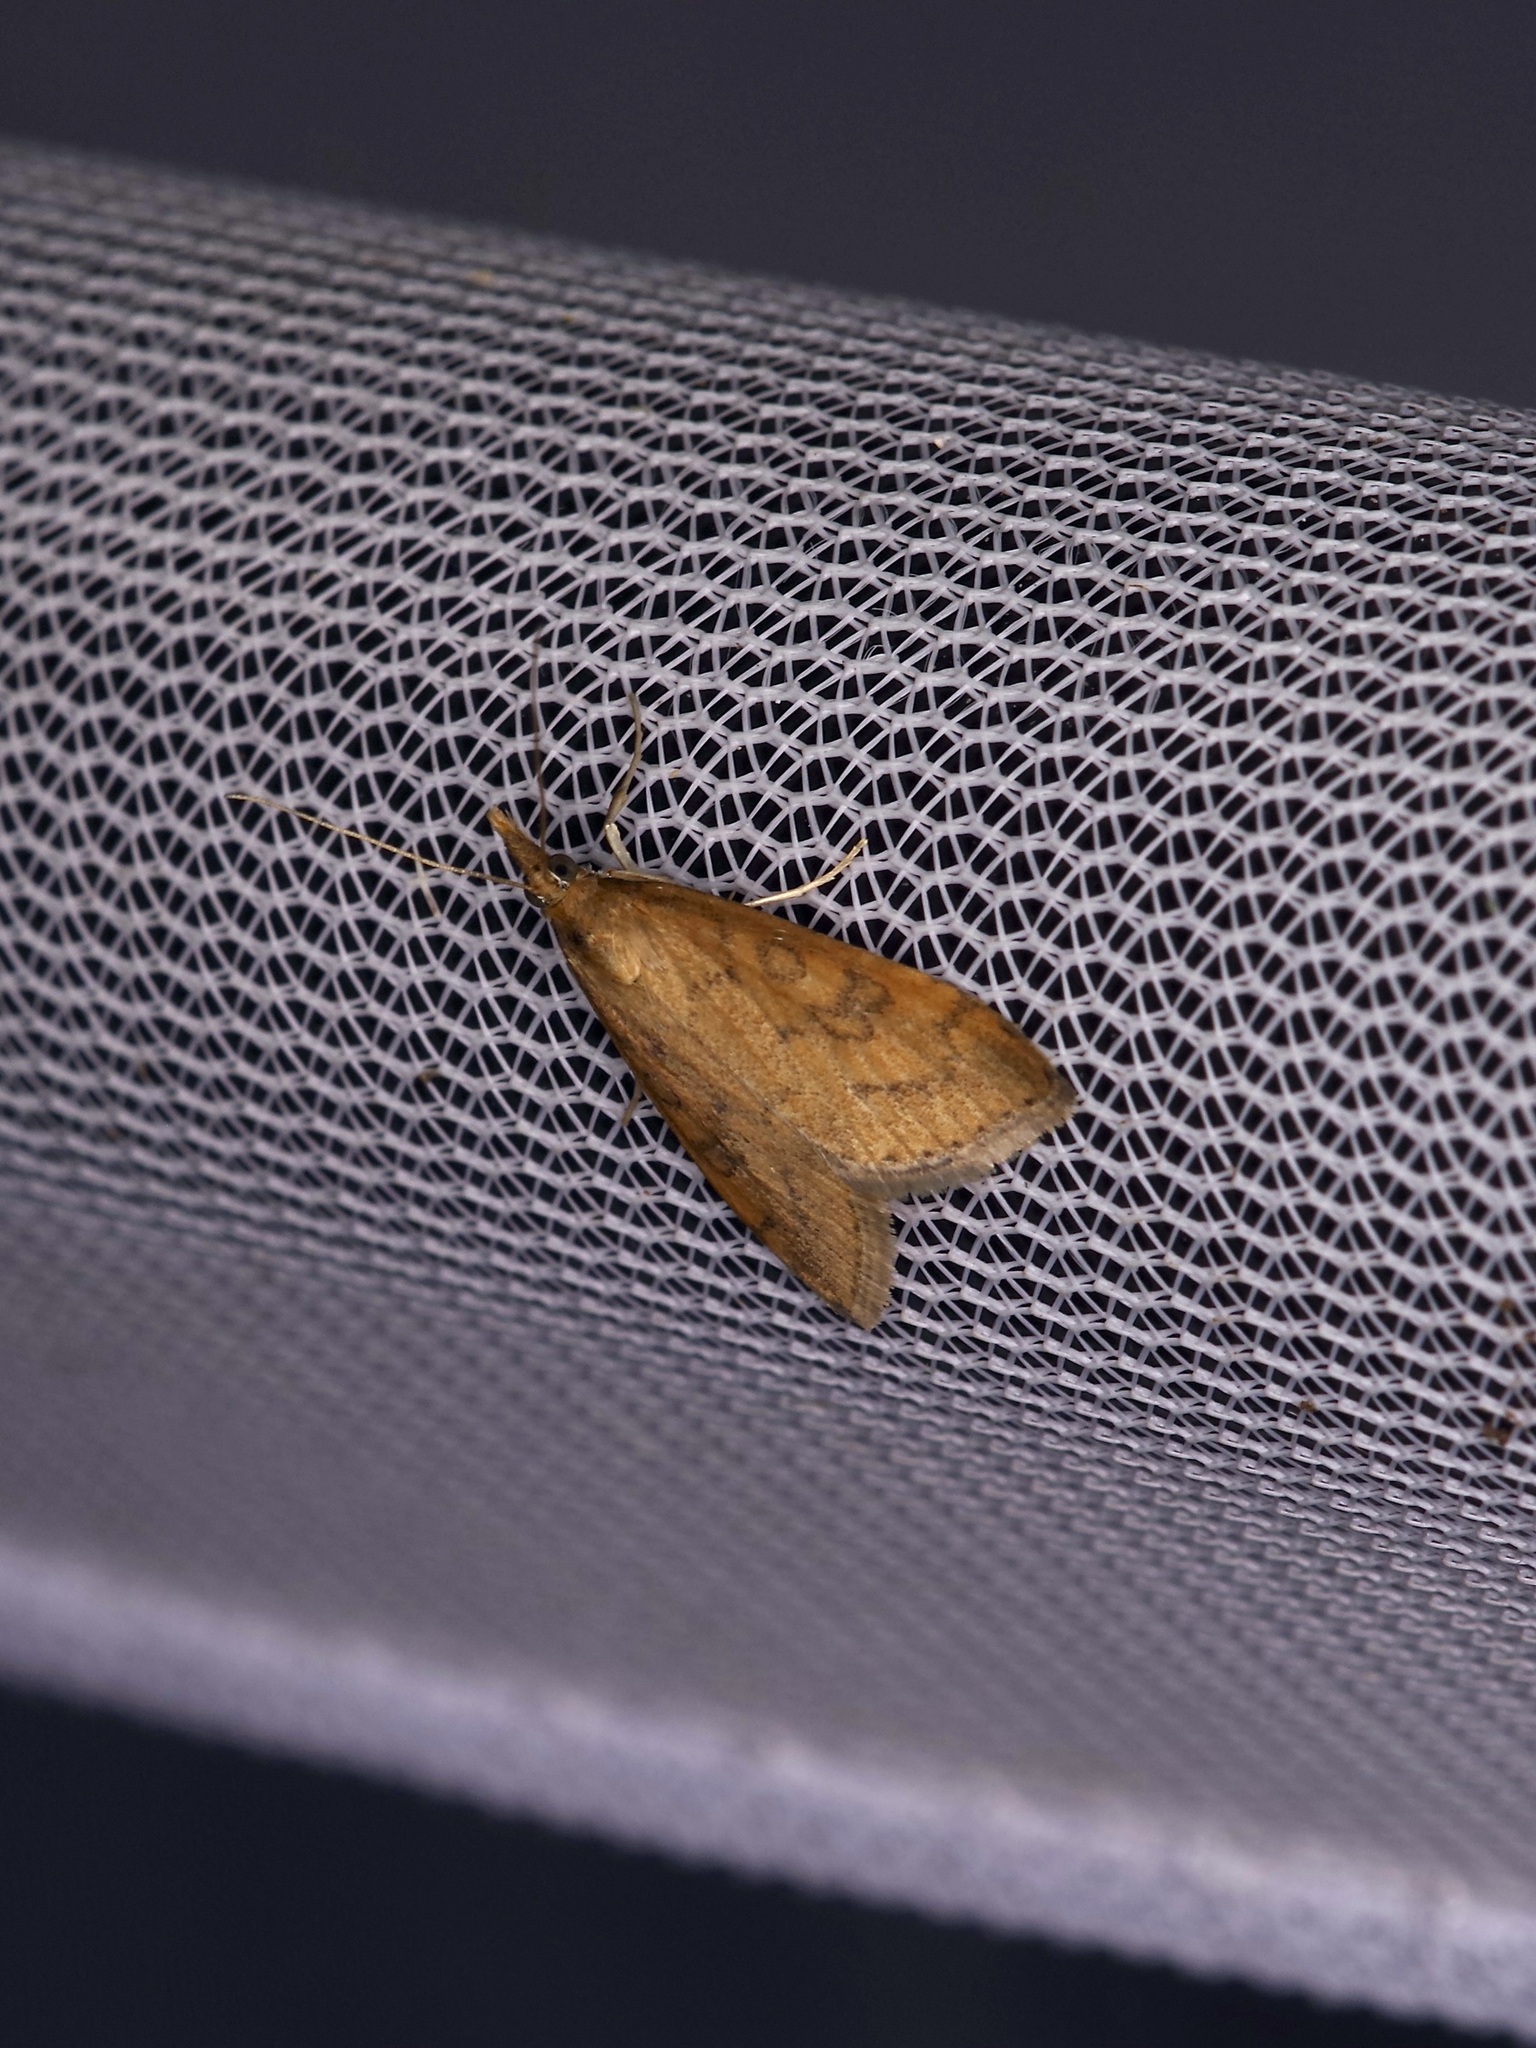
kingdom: Animalia
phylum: Arthropoda
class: Insecta
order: Lepidoptera
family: Crambidae
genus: Udea
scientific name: Udea rubigalis
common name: Celery leaftier moth
